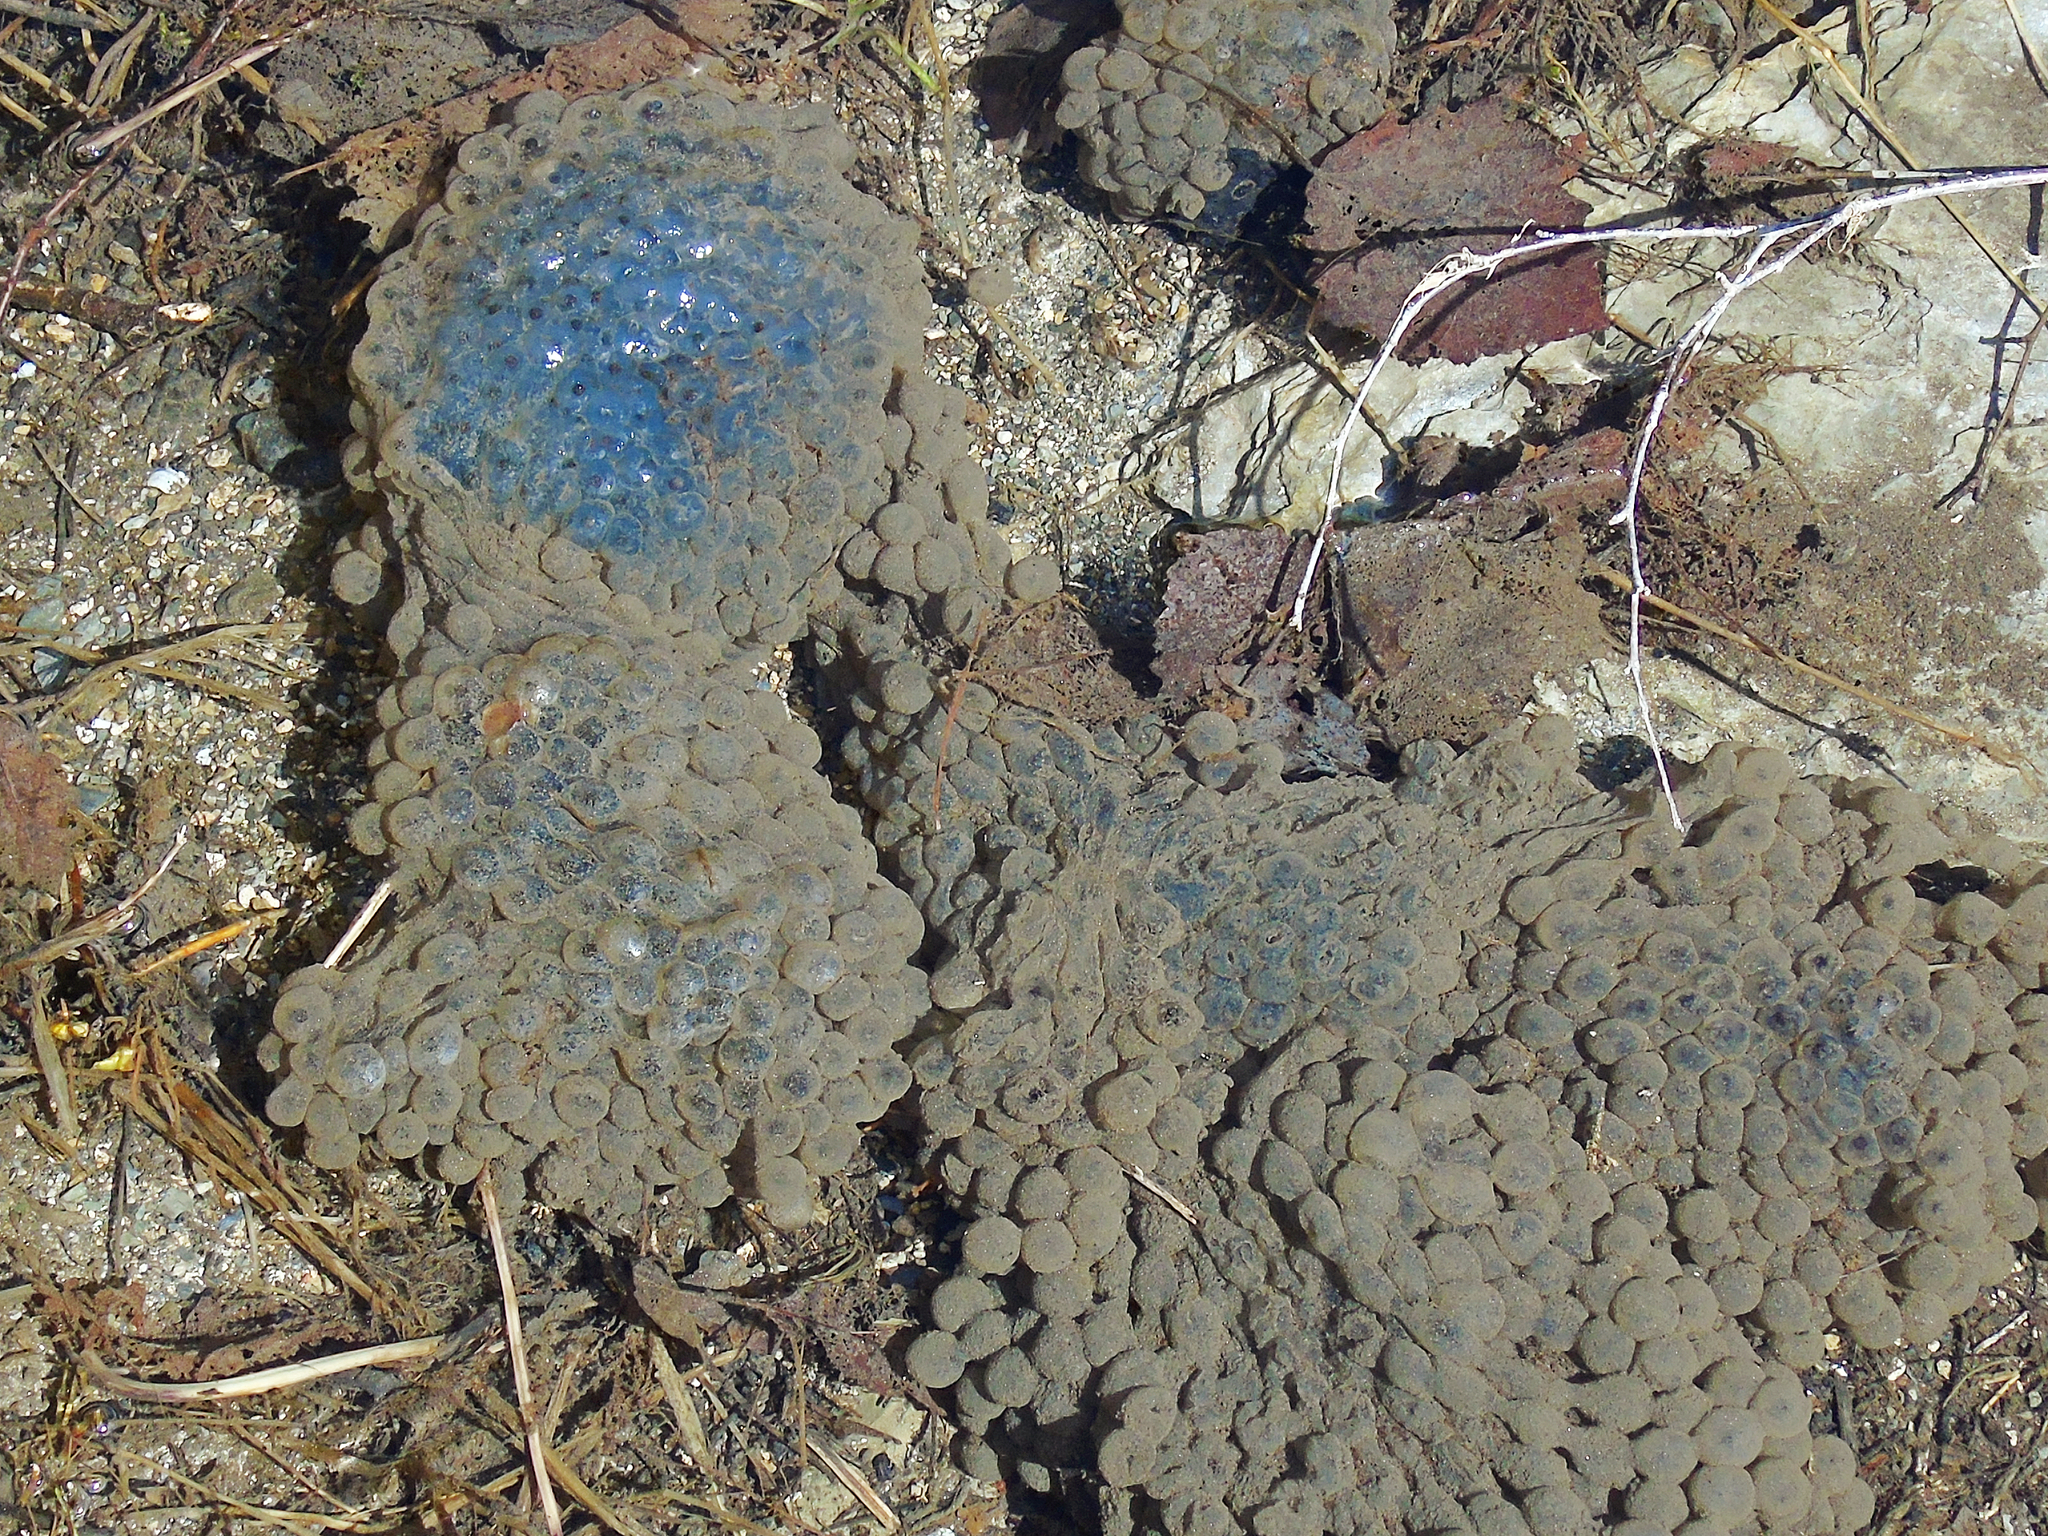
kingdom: Animalia
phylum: Chordata
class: Amphibia
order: Anura
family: Ranidae
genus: Rana
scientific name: Rana temporaria
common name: Common frog
